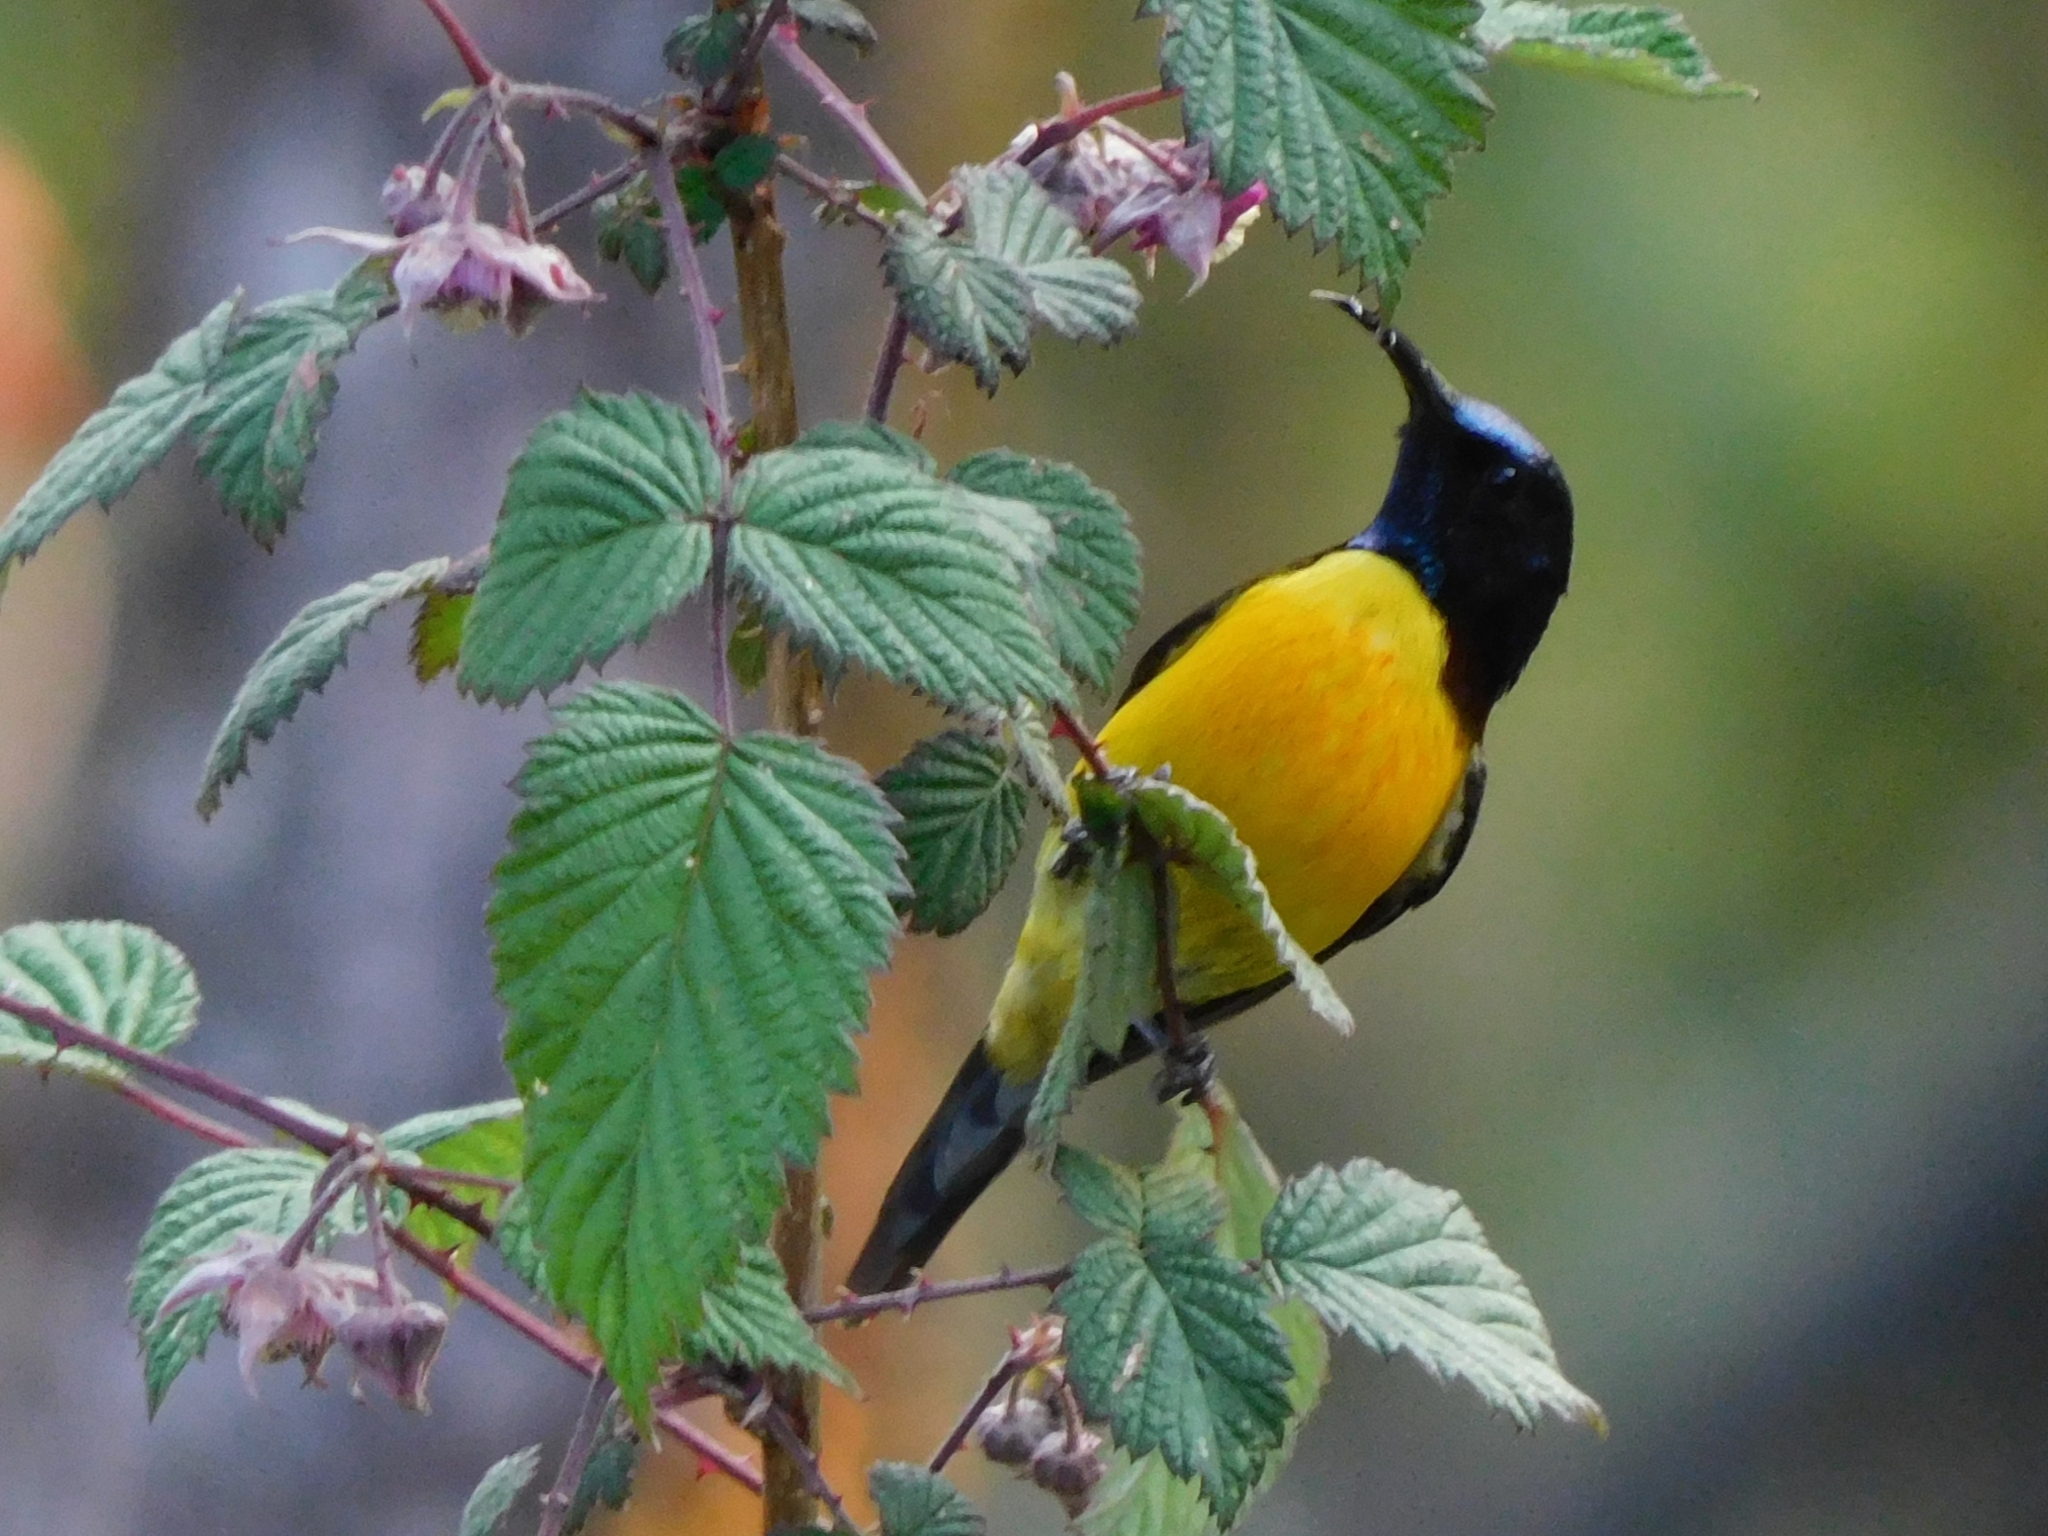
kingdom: Animalia
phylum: Chordata
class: Aves
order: Passeriformes
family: Nectariniidae
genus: Aethopyga
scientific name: Aethopyga nipalensis
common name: Green-tailed sunbird
